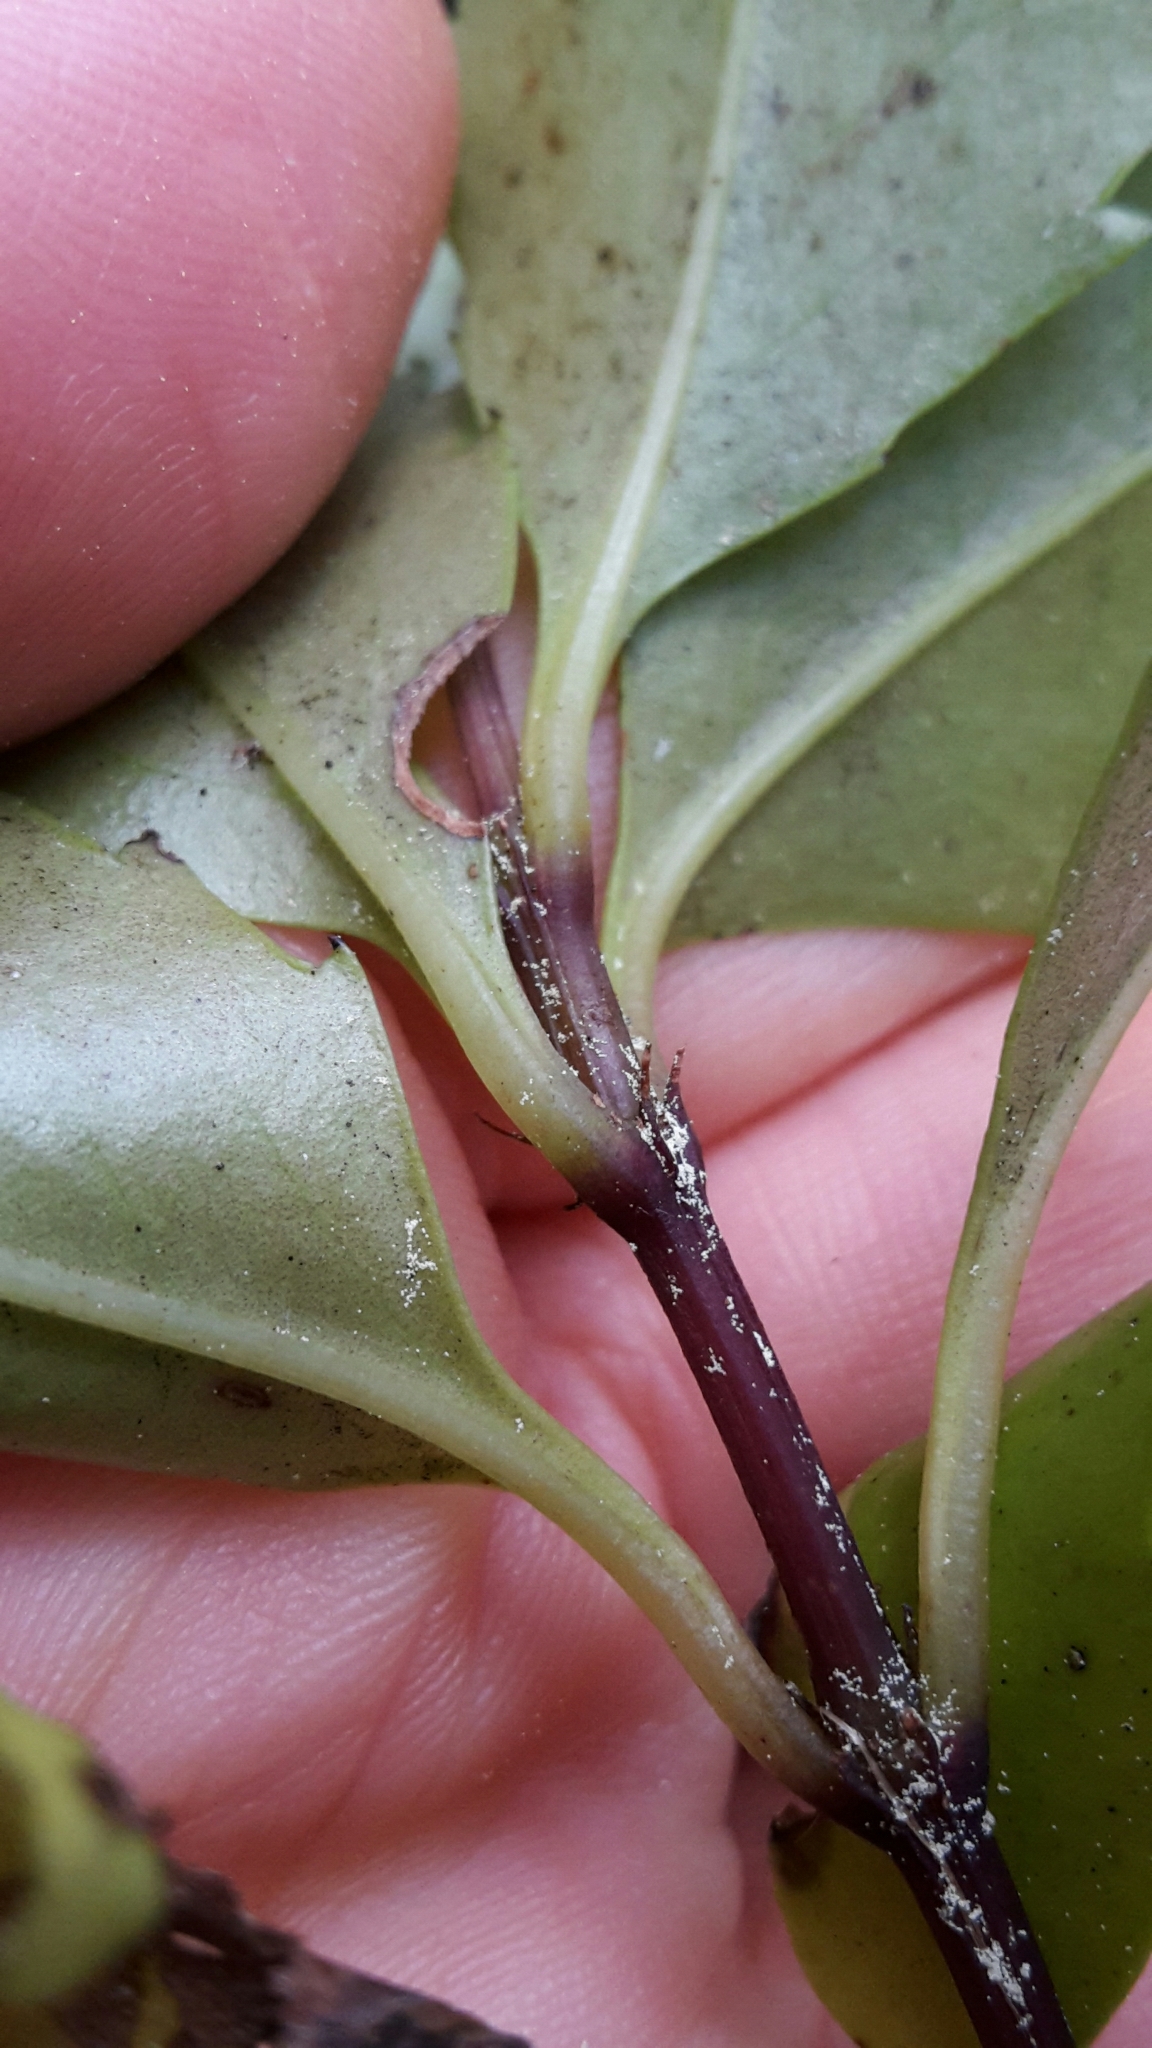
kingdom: Plantae
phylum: Tracheophyta
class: Magnoliopsida
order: Chloranthales
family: Chloranthaceae
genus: Ascarina
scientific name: Ascarina lucida
